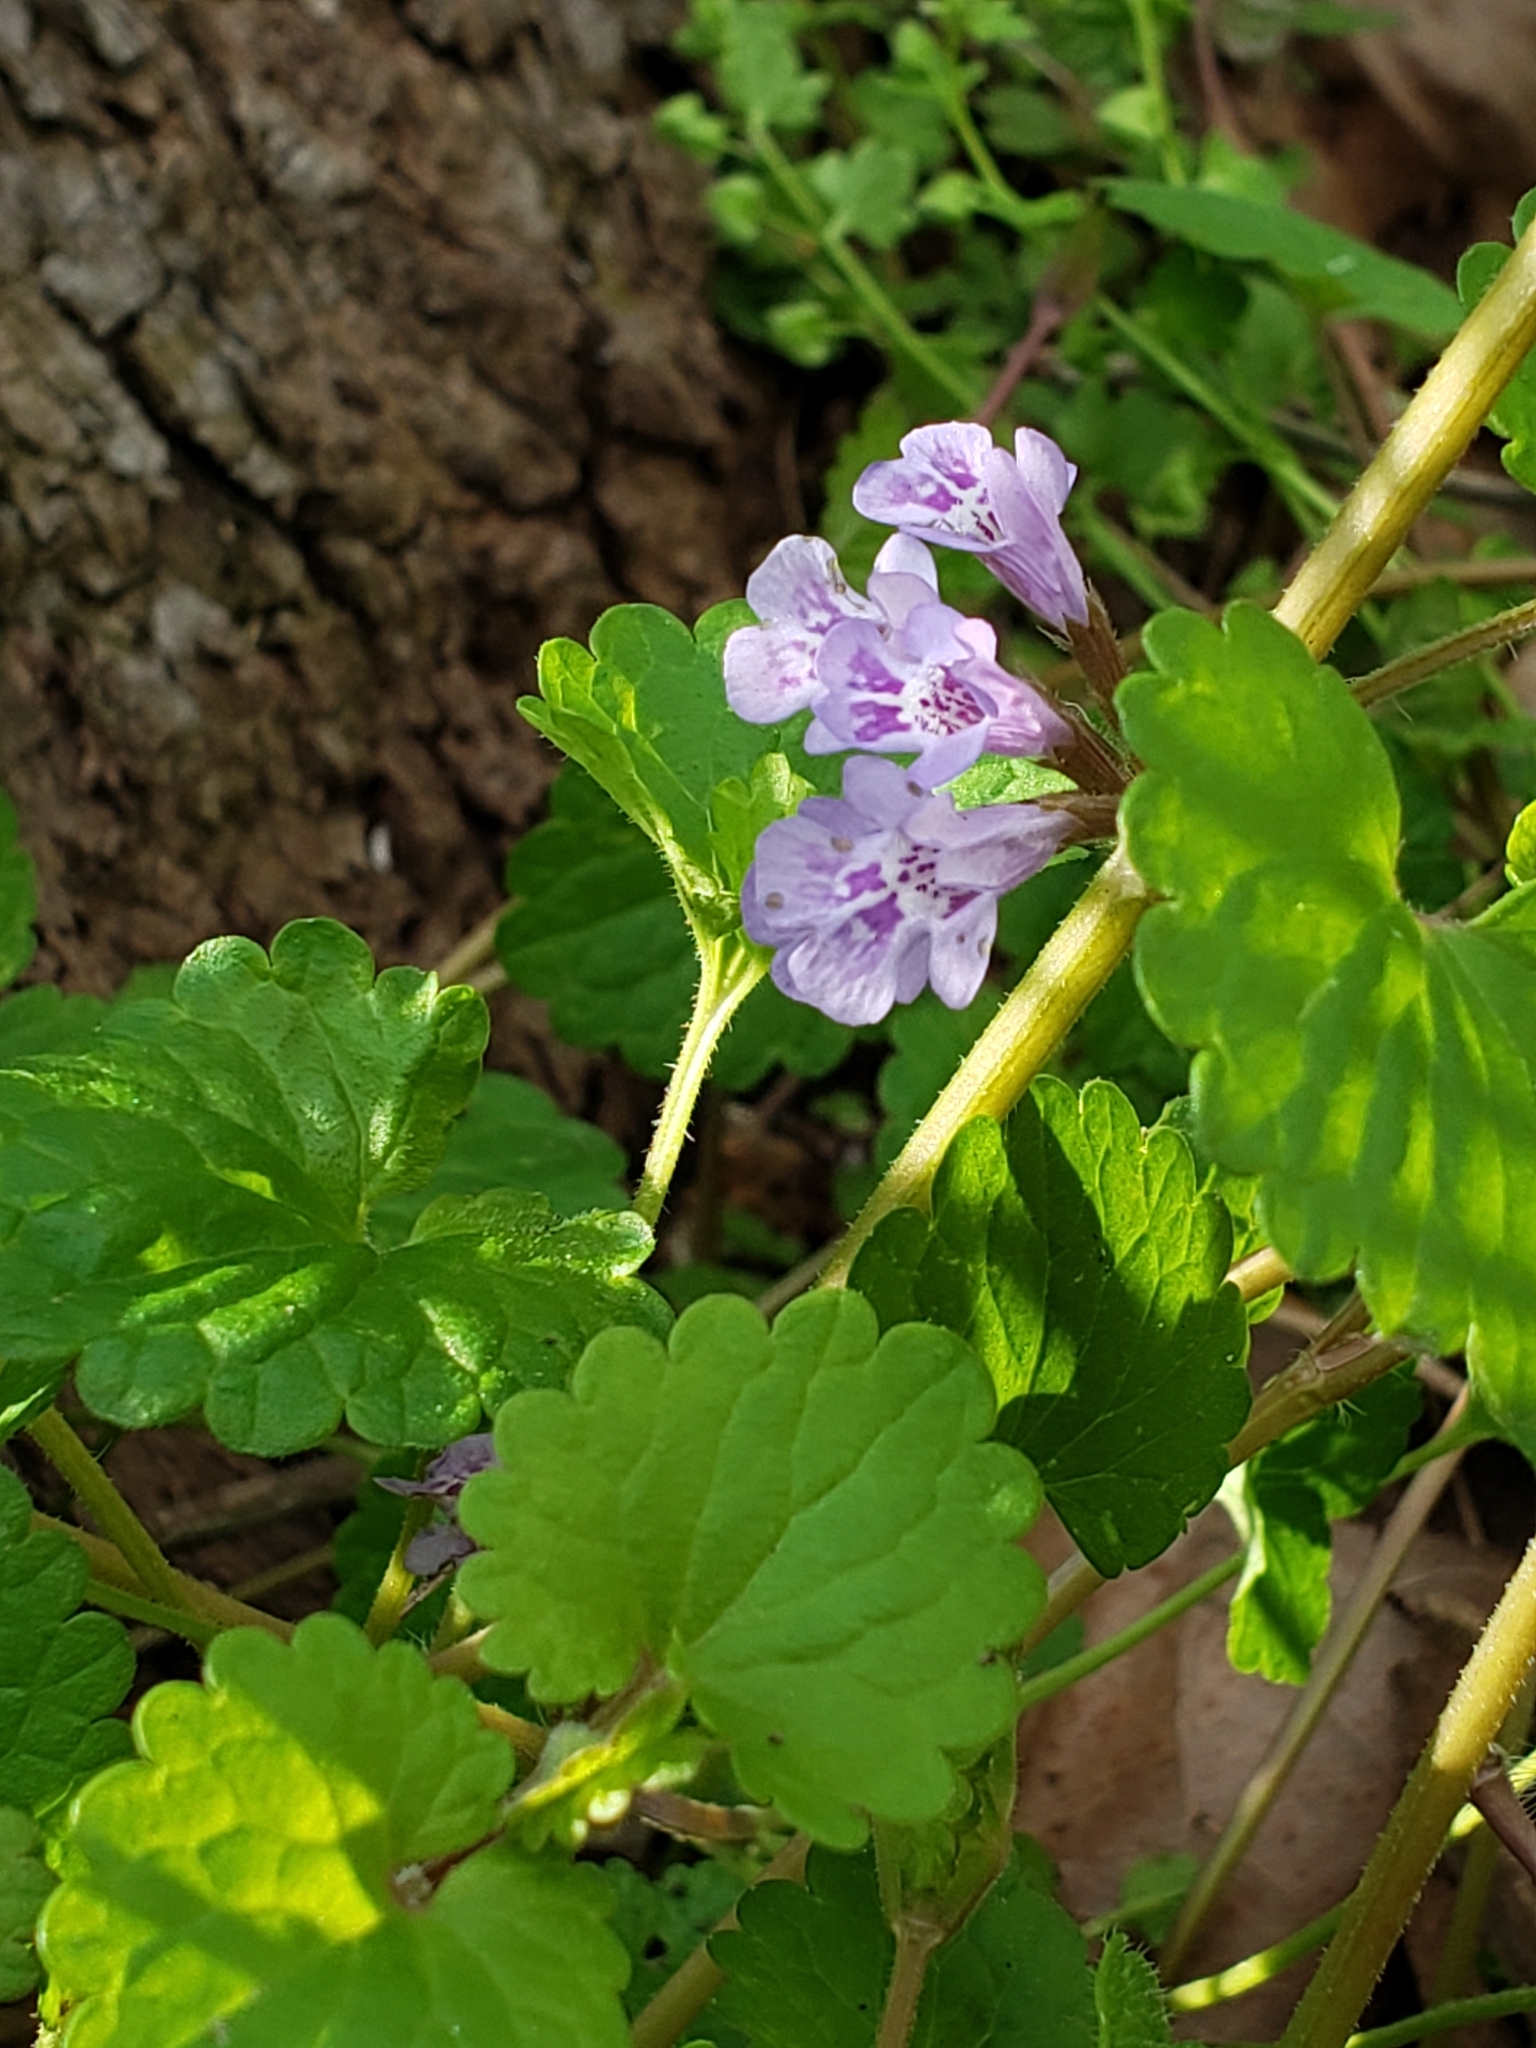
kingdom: Plantae
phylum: Tracheophyta
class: Magnoliopsida
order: Lamiales
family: Lamiaceae
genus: Glechoma
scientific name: Glechoma hederacea
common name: Ground ivy
